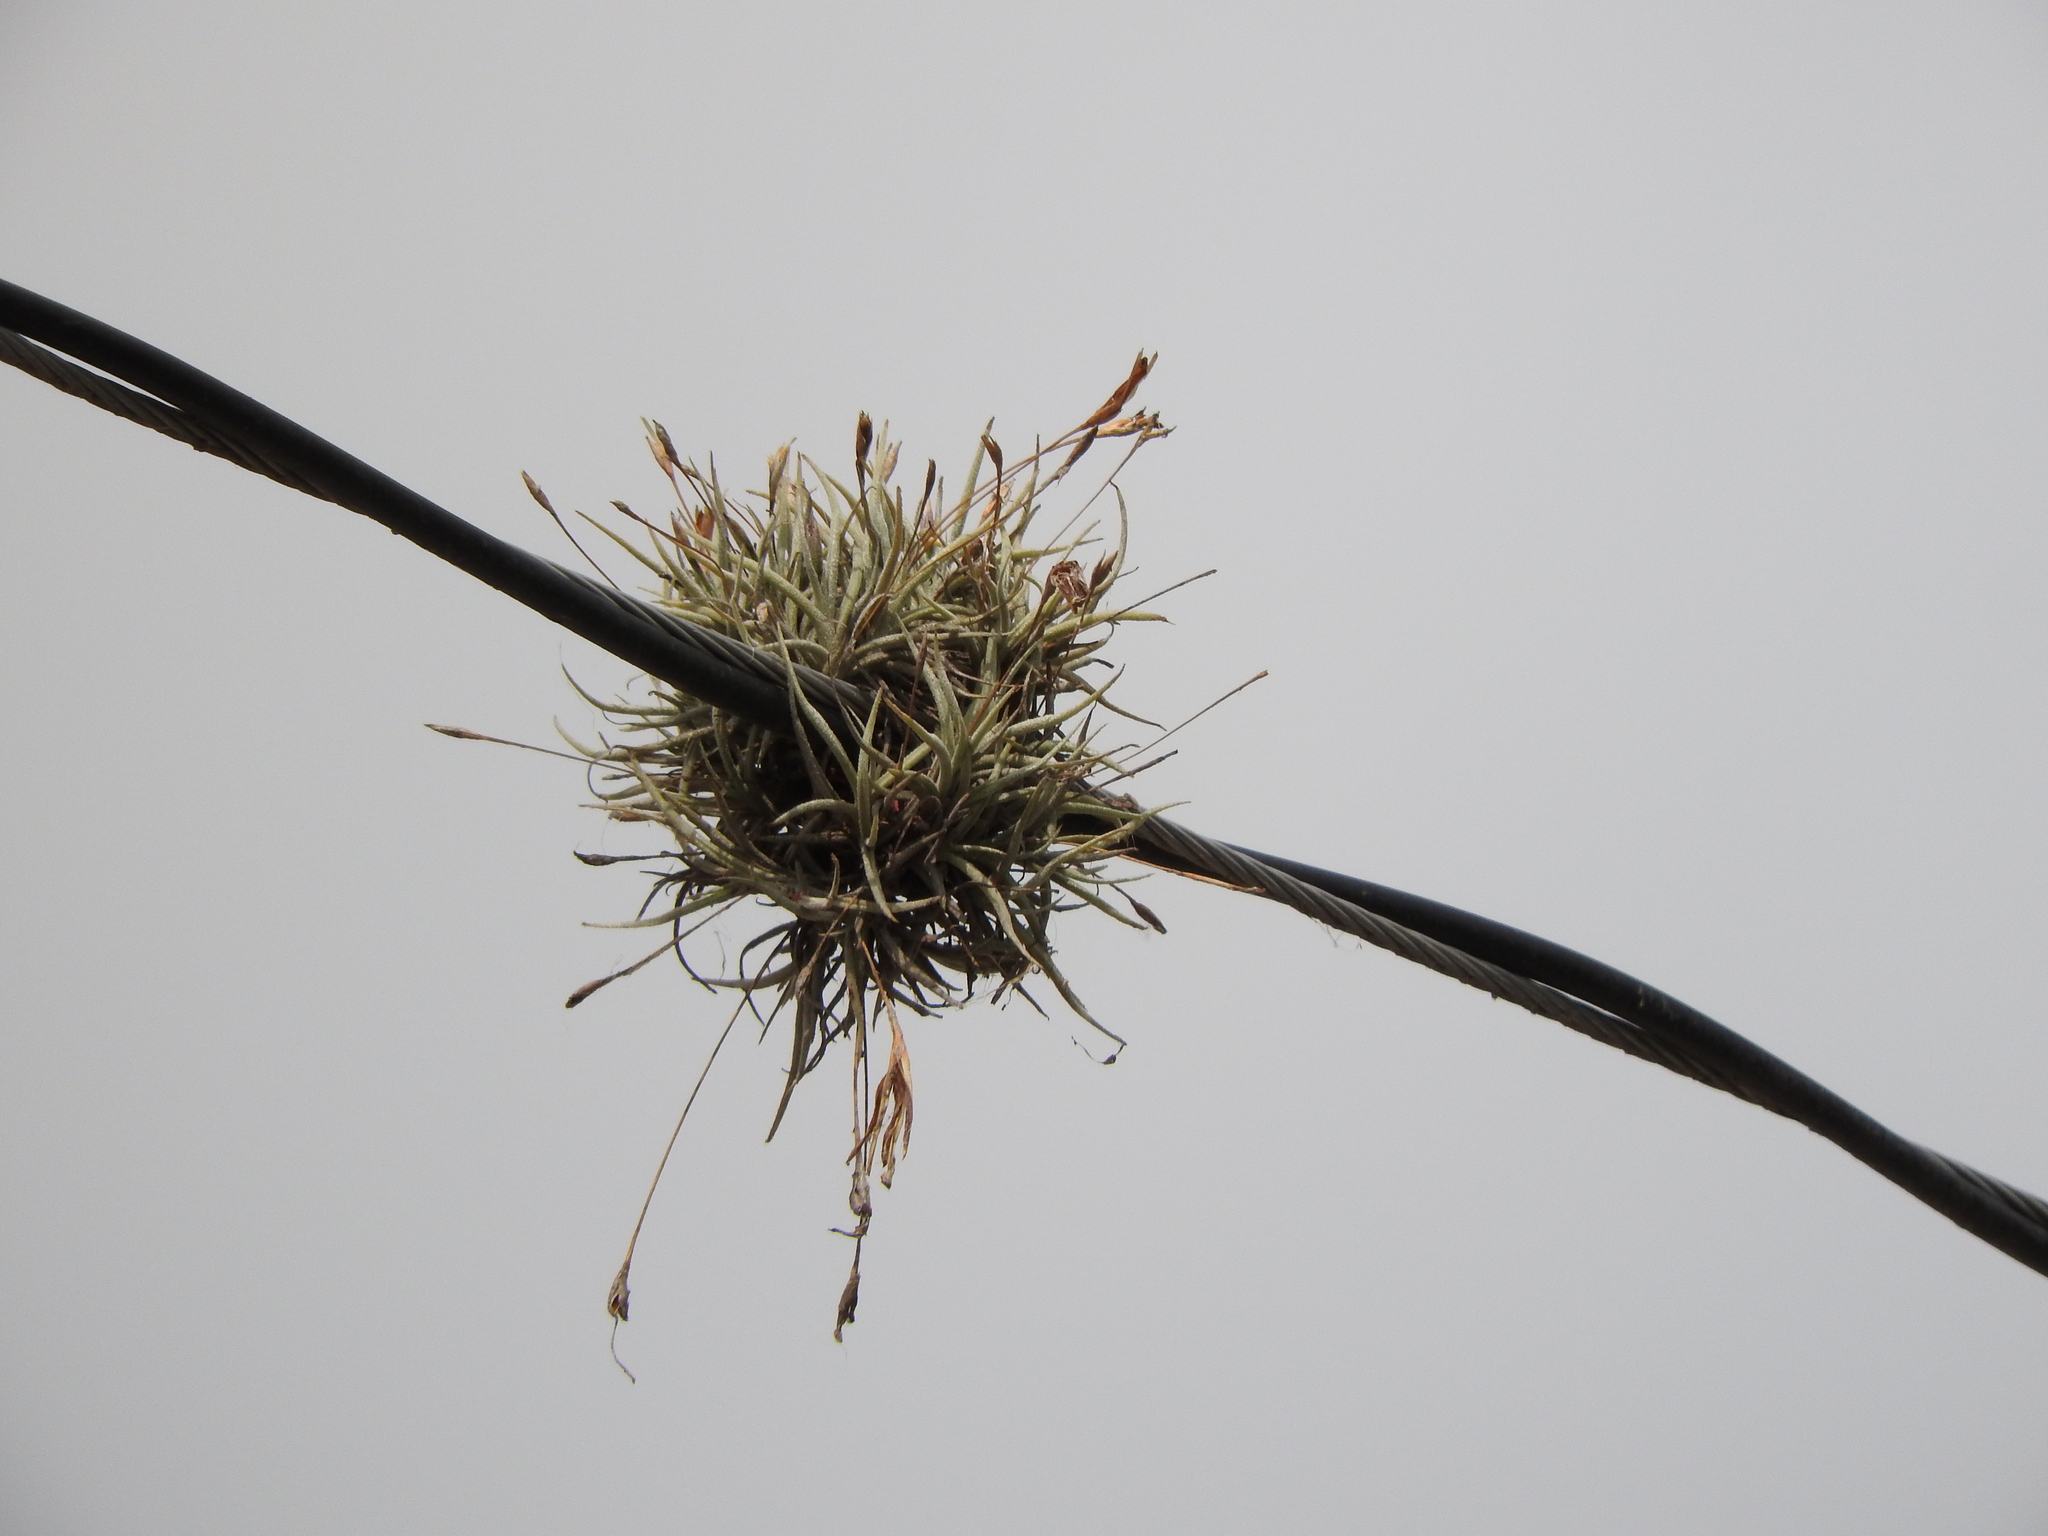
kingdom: Plantae
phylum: Tracheophyta
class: Liliopsida
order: Poales
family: Bromeliaceae
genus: Tillandsia
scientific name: Tillandsia recurvata
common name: Small ballmoss
